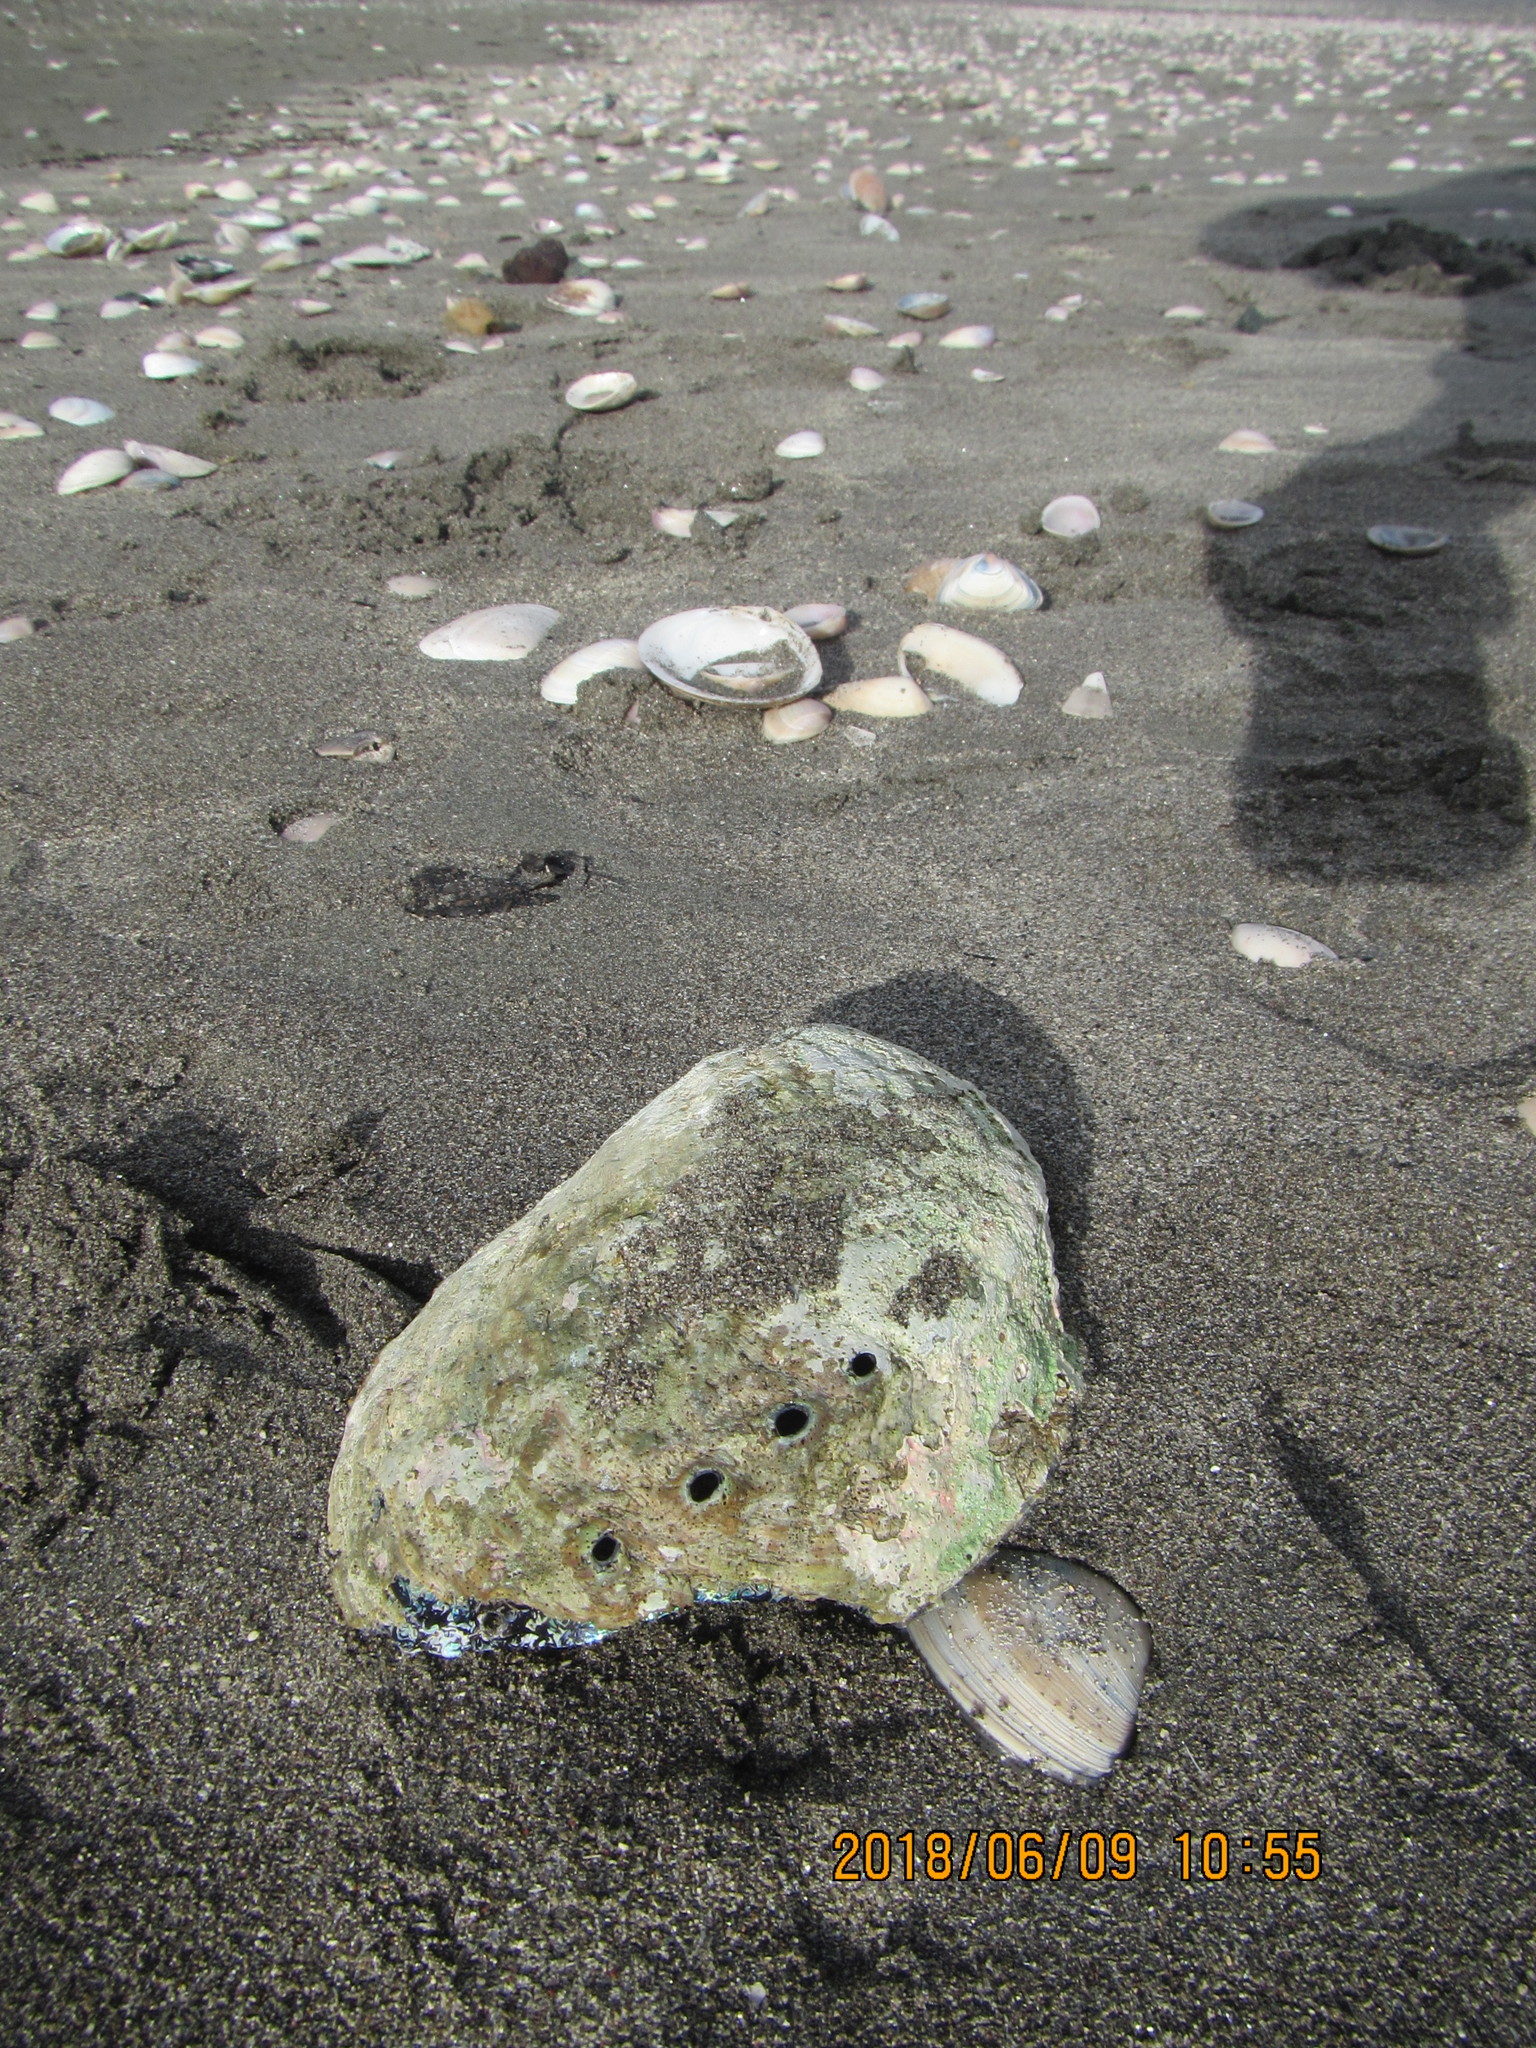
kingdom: Animalia
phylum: Mollusca
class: Gastropoda
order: Lepetellida
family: Haliotidae
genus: Haliotis
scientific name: Haliotis iris
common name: Abalone
